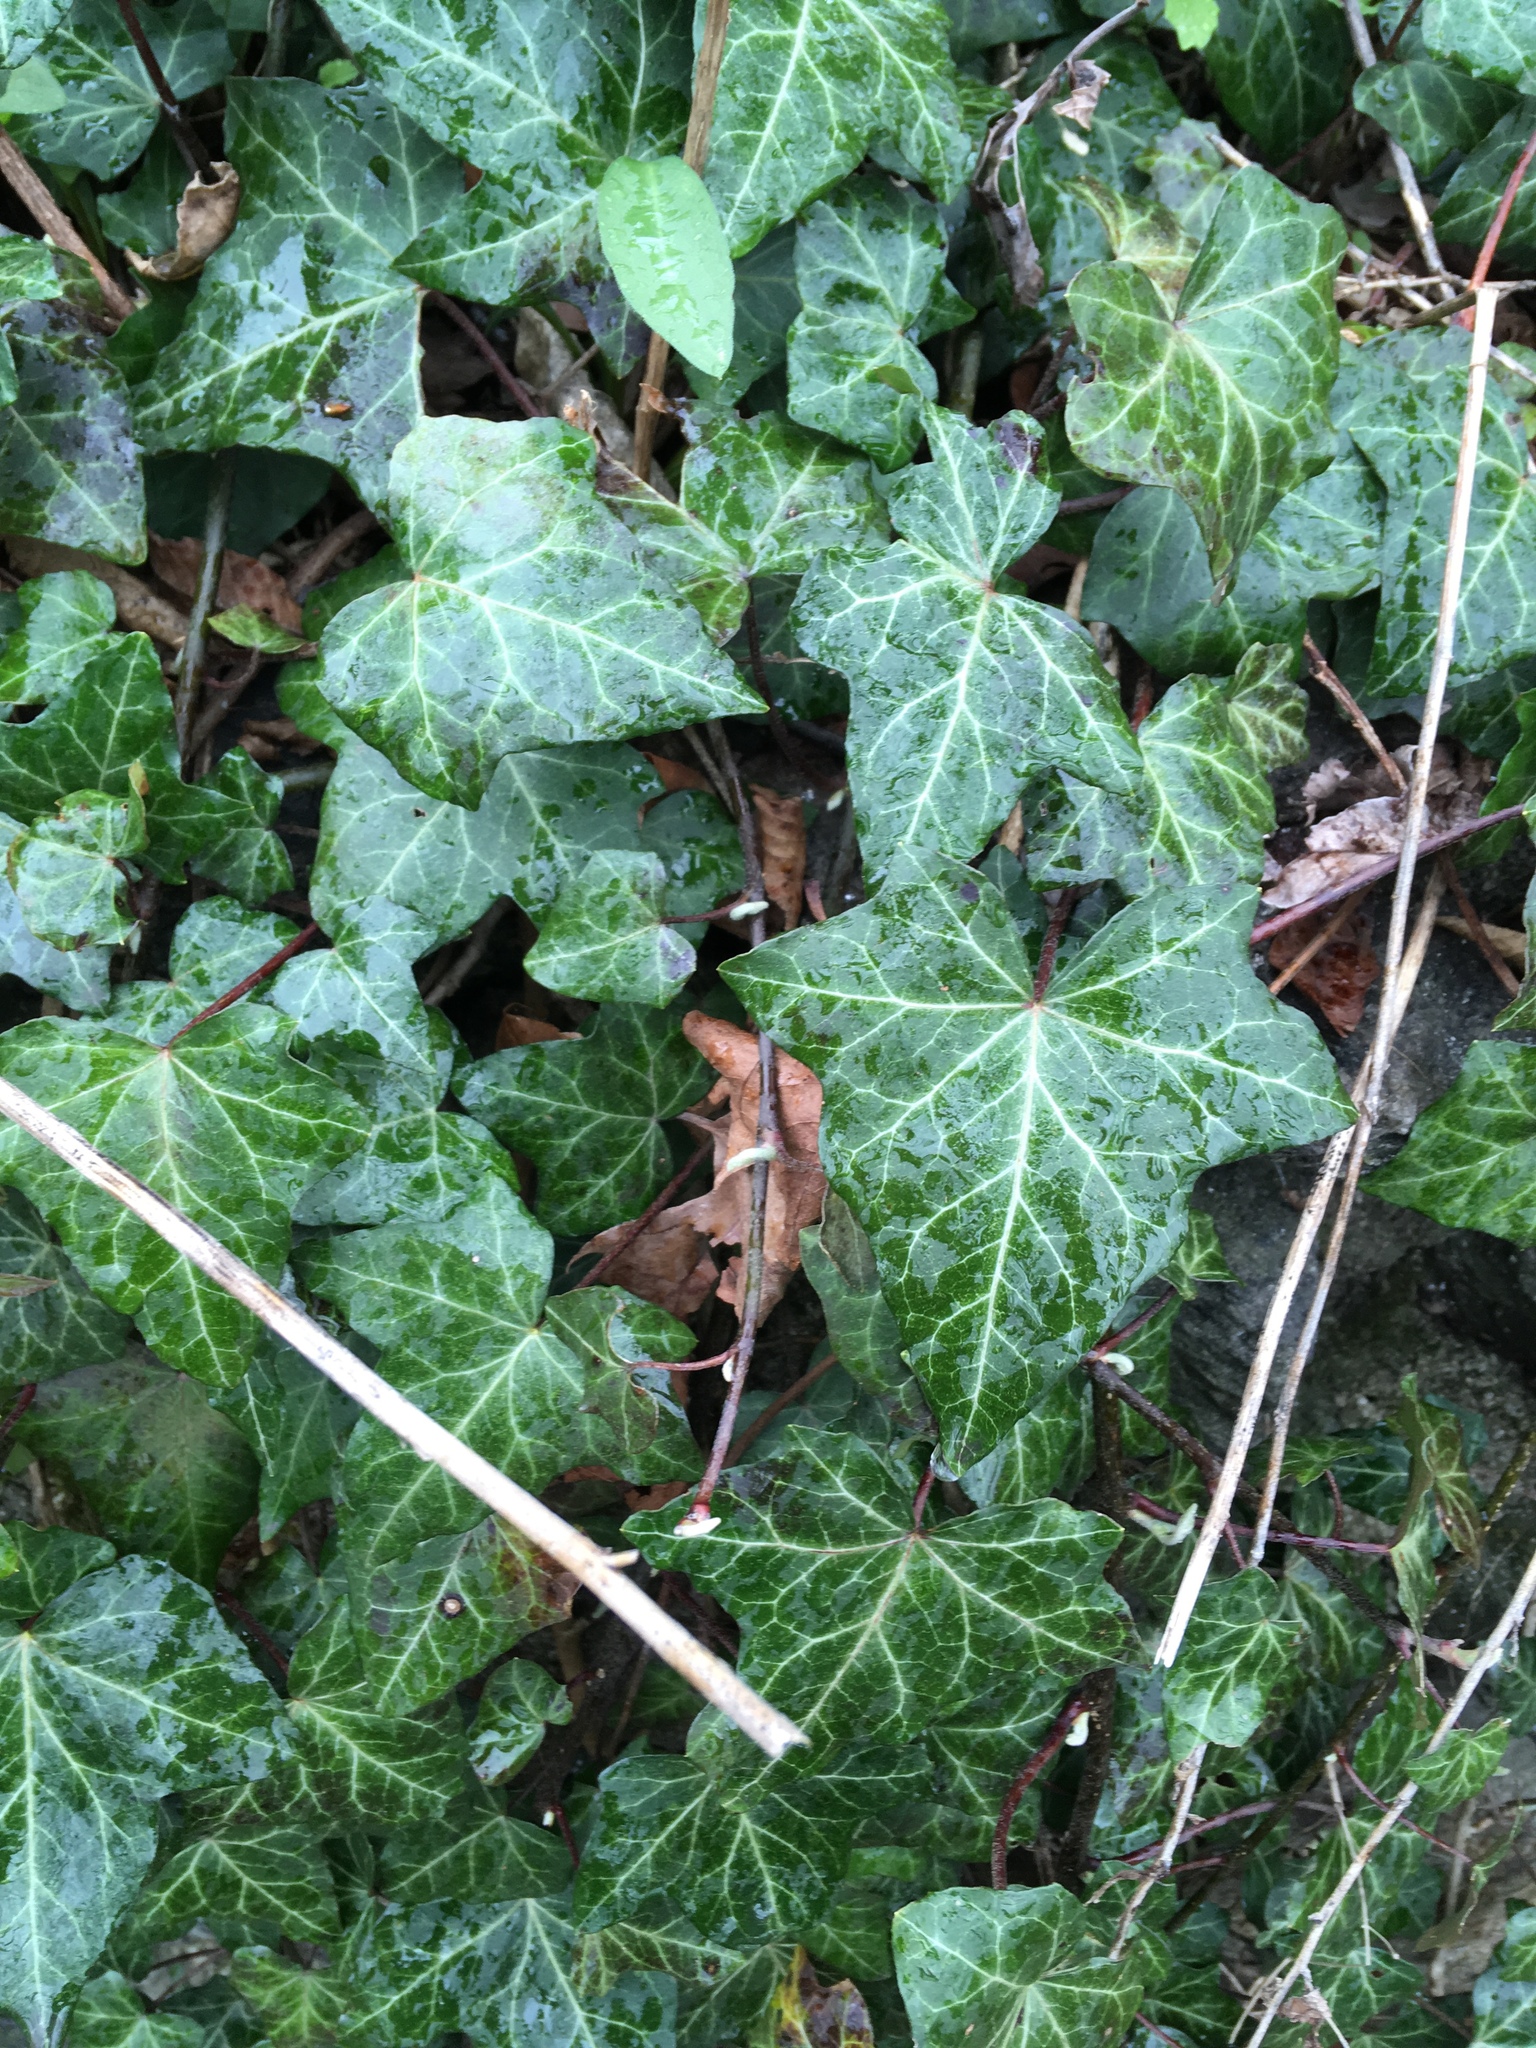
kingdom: Plantae
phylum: Tracheophyta
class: Magnoliopsida
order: Apiales
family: Araliaceae
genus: Hedera
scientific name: Hedera helix
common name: Ivy
